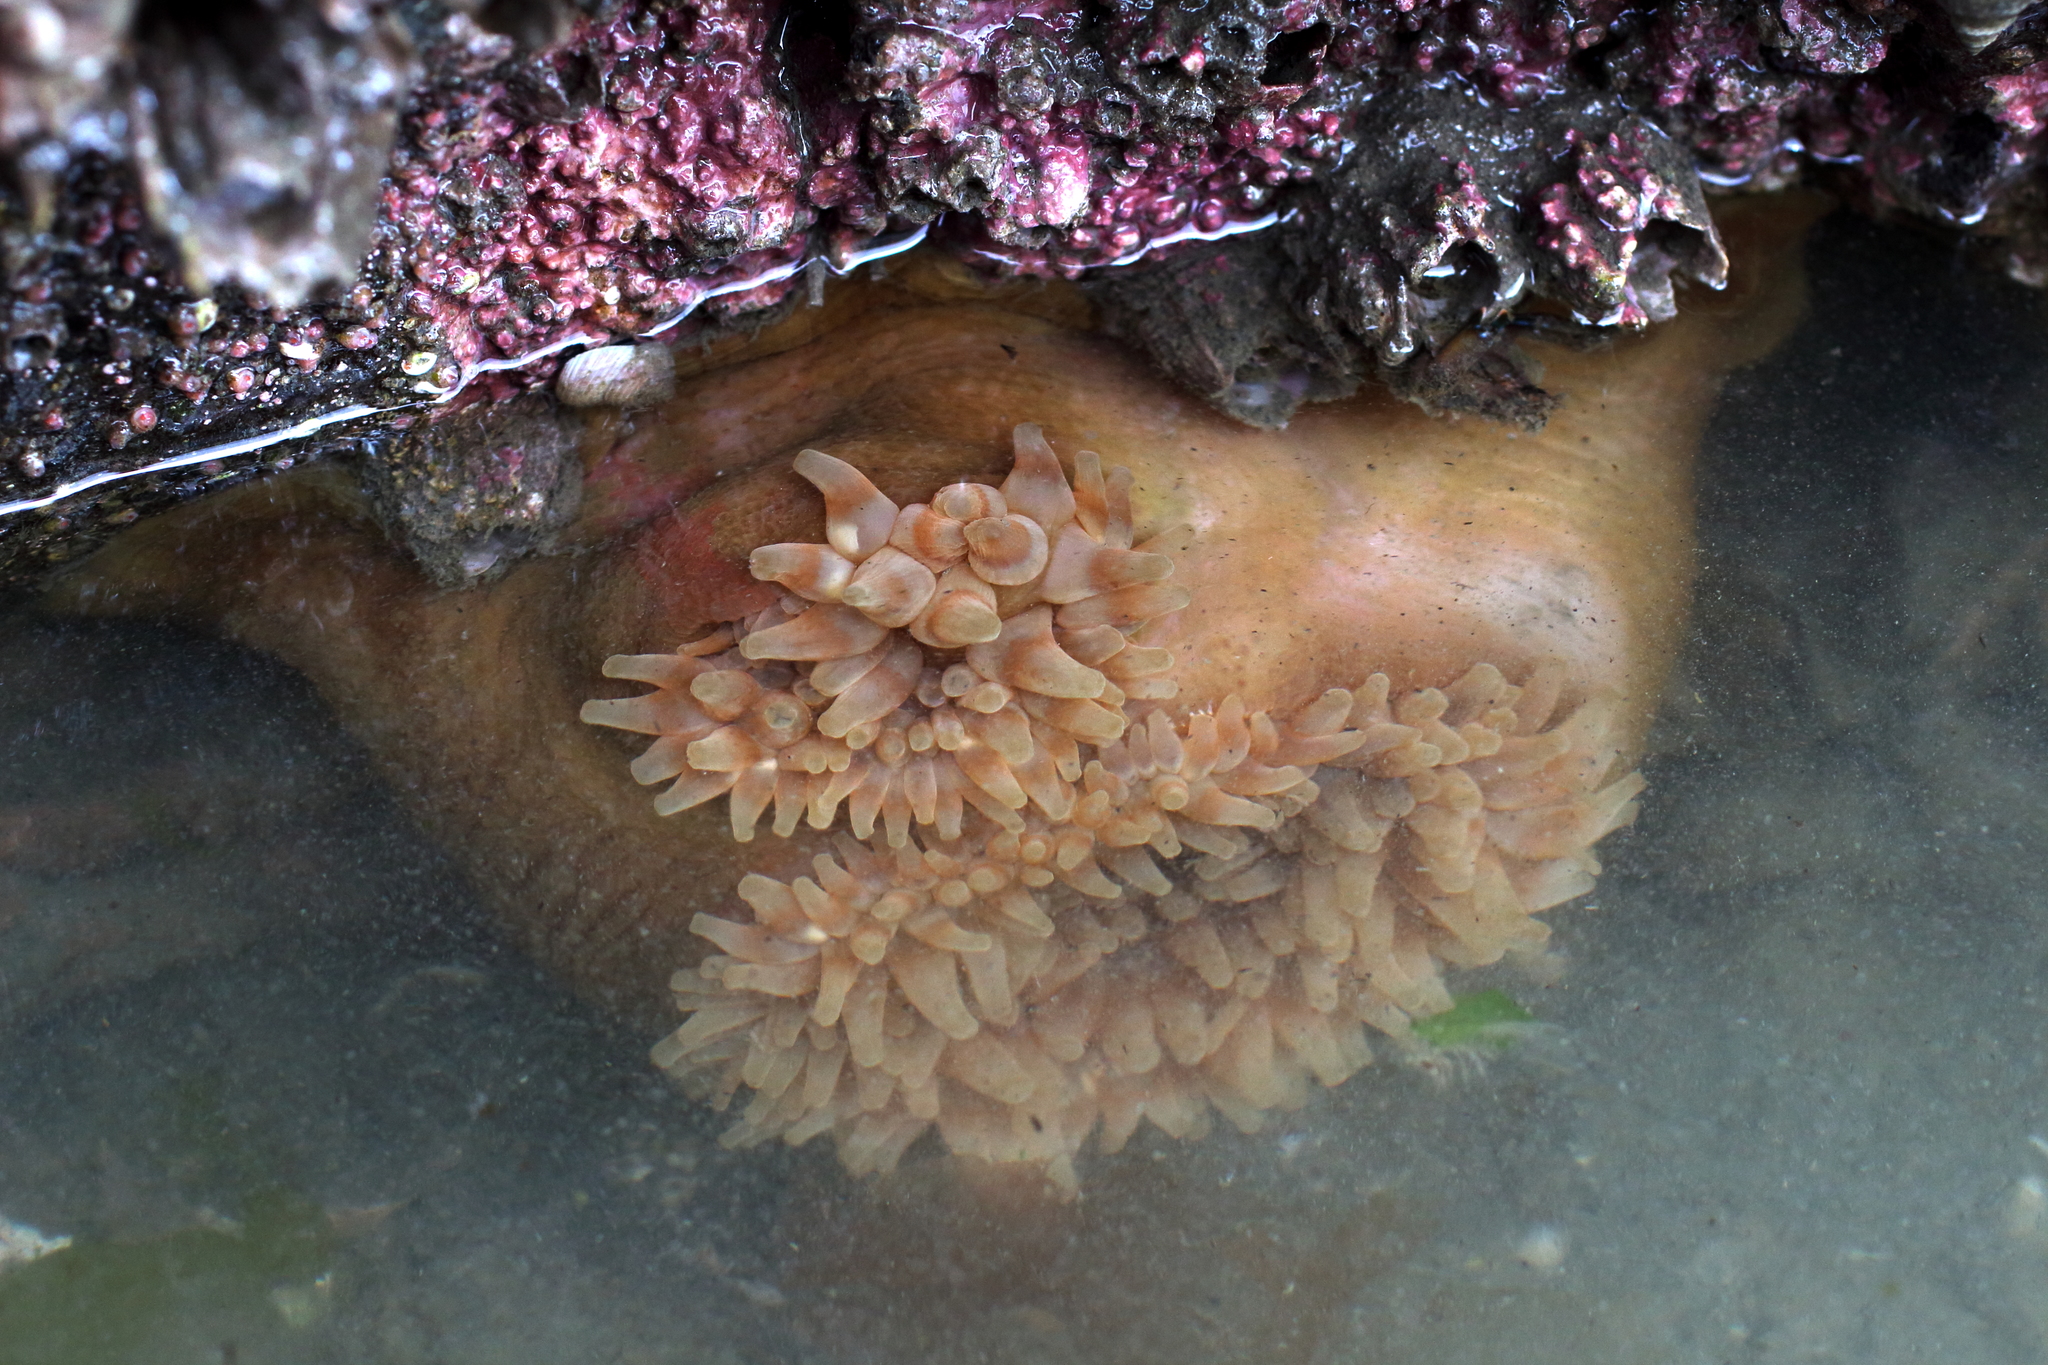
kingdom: Animalia
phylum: Cnidaria
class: Anthozoa
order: Actiniaria
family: Actiniidae
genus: Urticina
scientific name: Urticina grebelnyi
